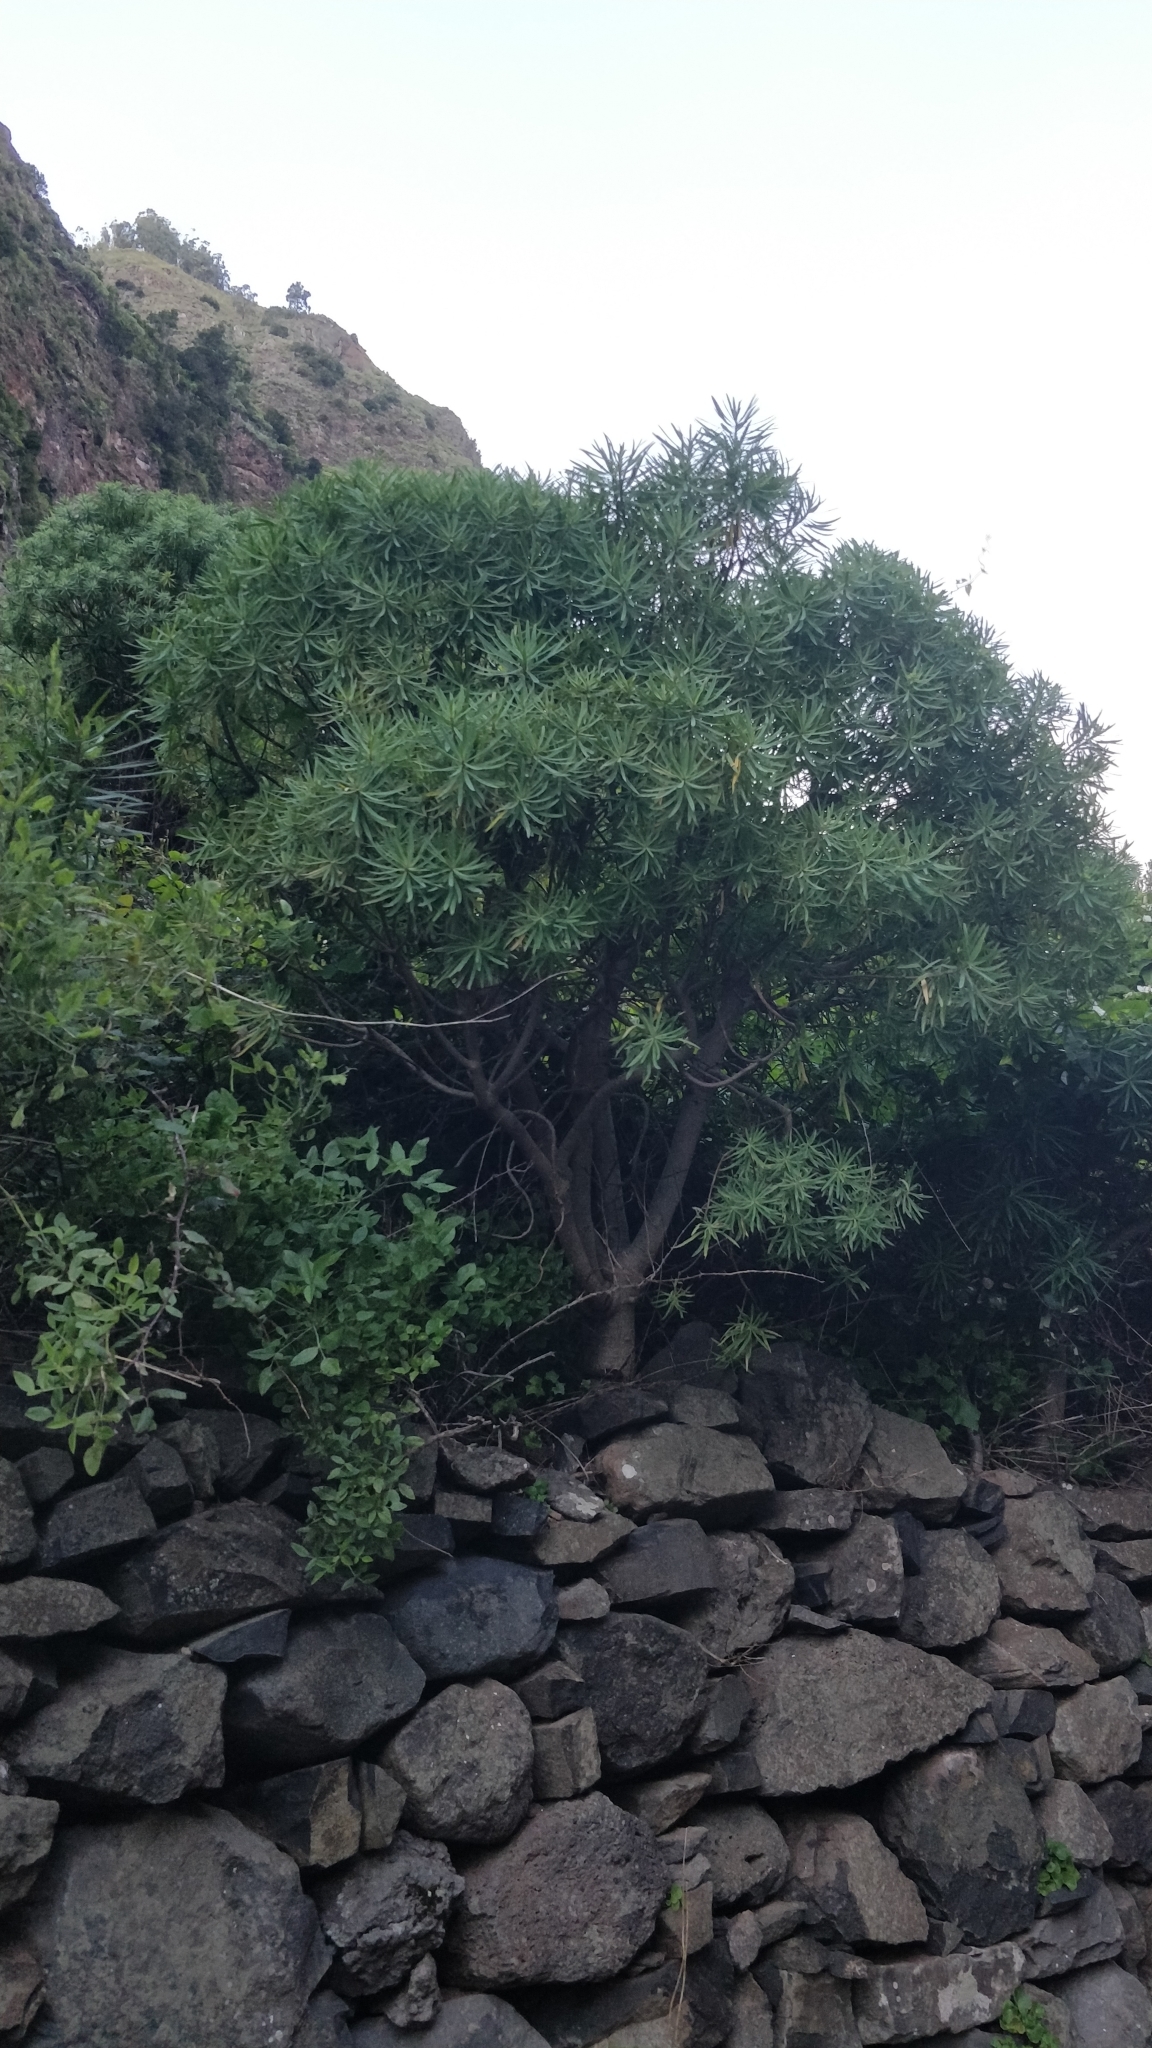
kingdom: Plantae
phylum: Tracheophyta
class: Magnoliopsida
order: Malpighiales
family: Euphorbiaceae
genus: Euphorbia
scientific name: Euphorbia piscatoria
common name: Fish-stunning spurge
